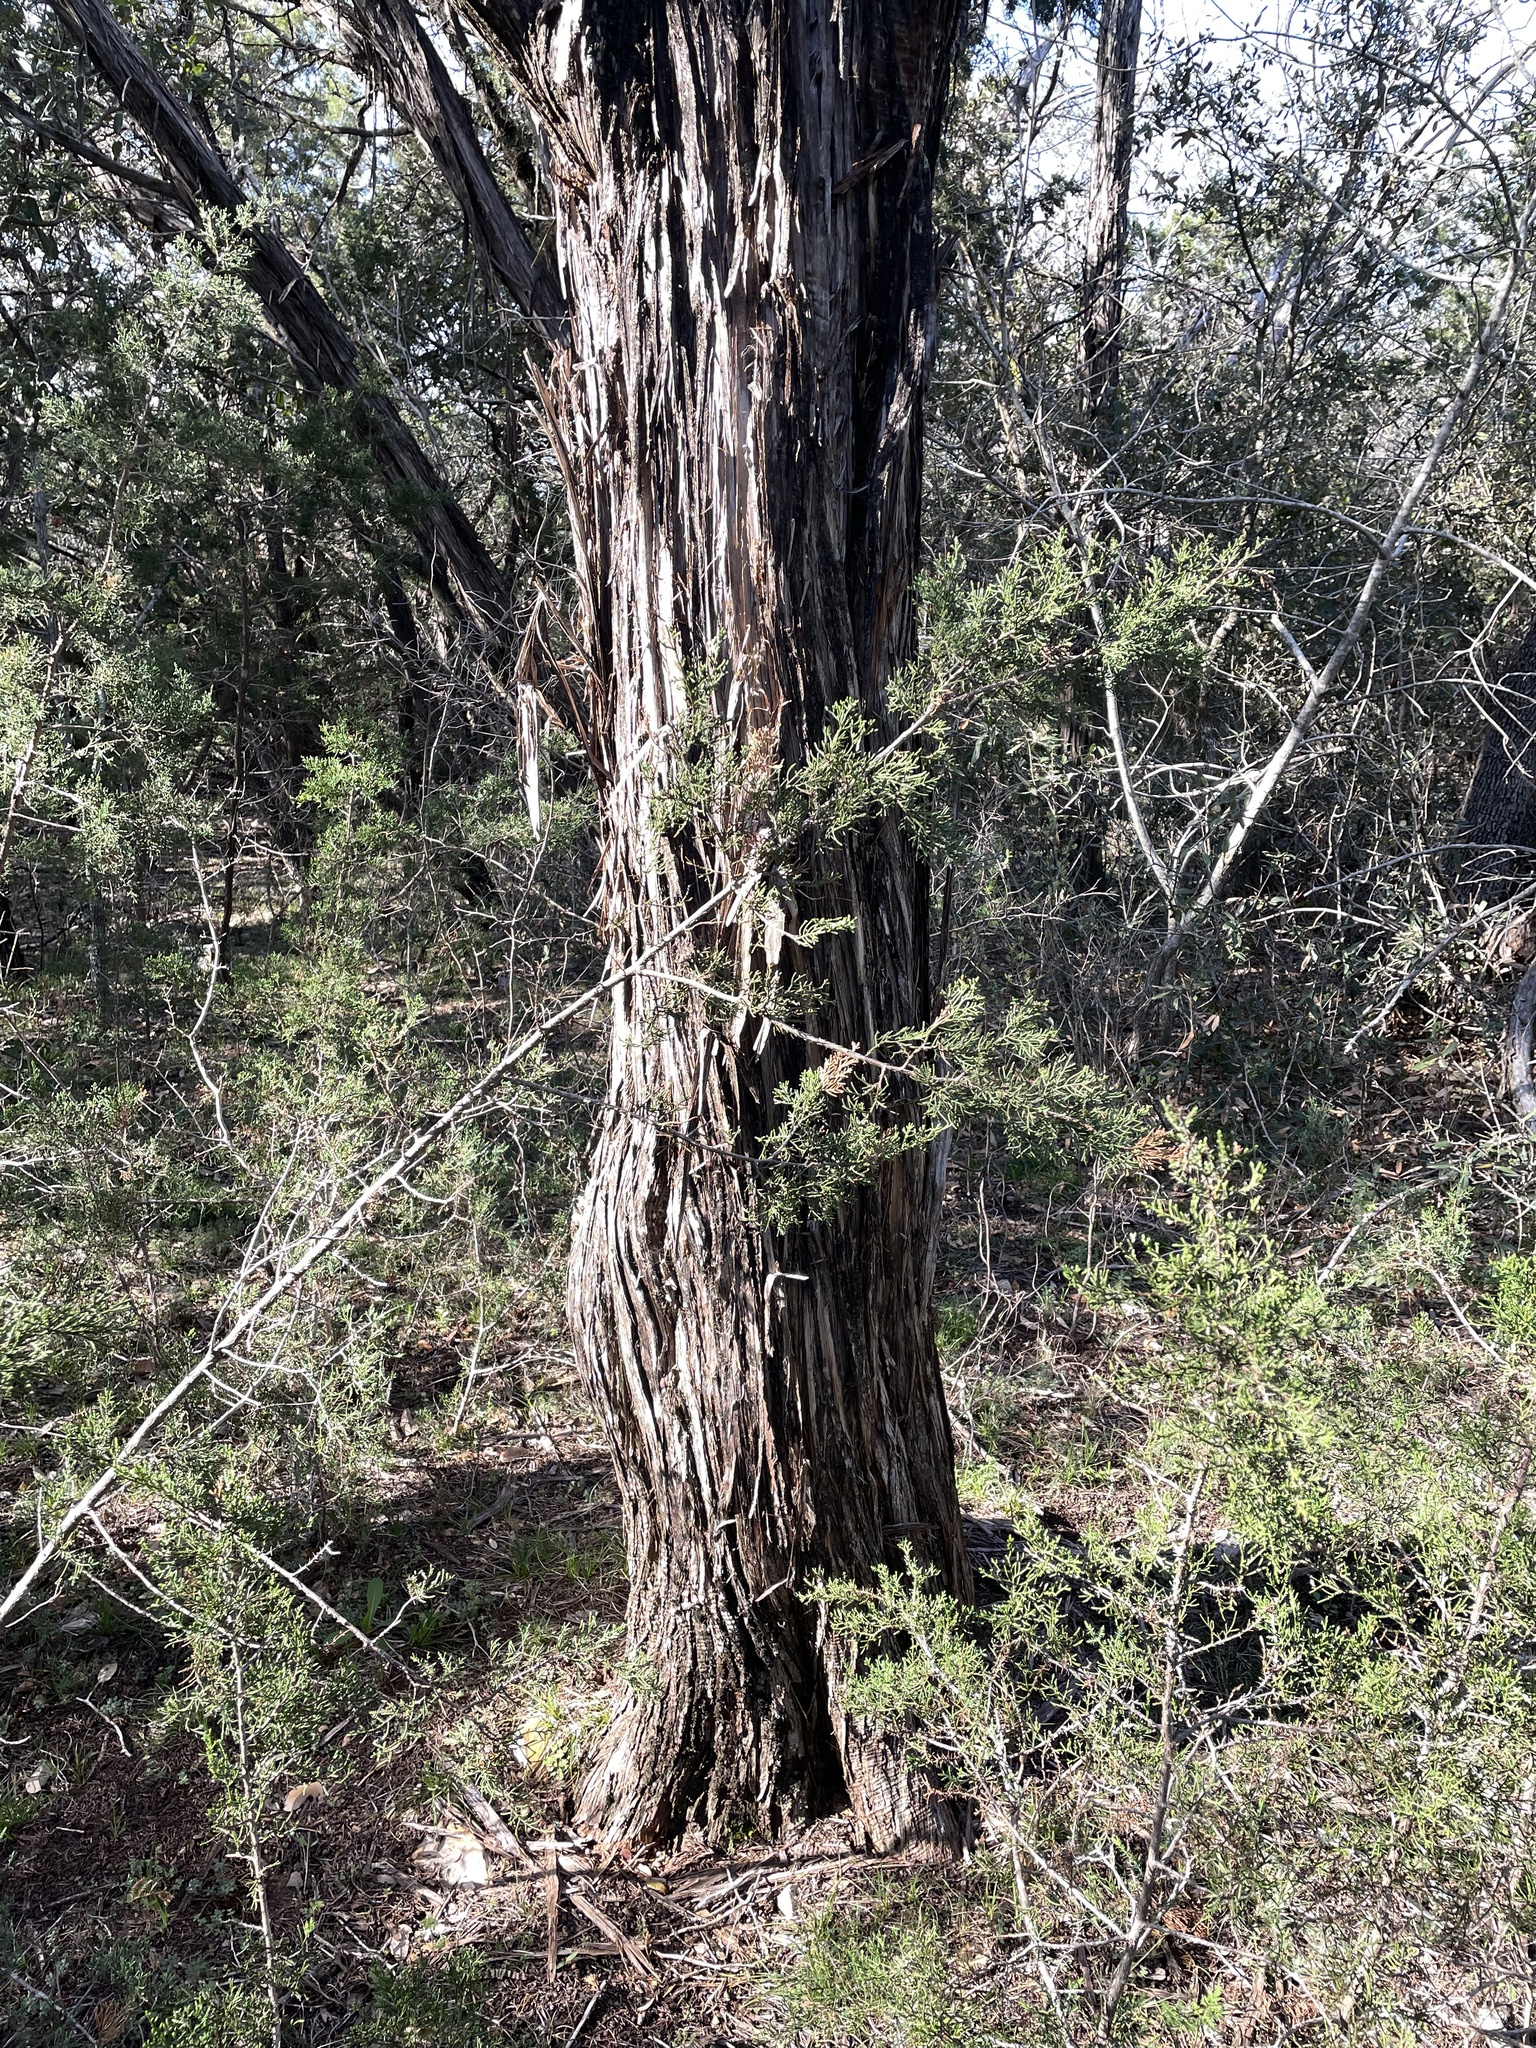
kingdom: Plantae
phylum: Tracheophyta
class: Pinopsida
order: Pinales
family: Cupressaceae
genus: Juniperus
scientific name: Juniperus ashei
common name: Mexican juniper
